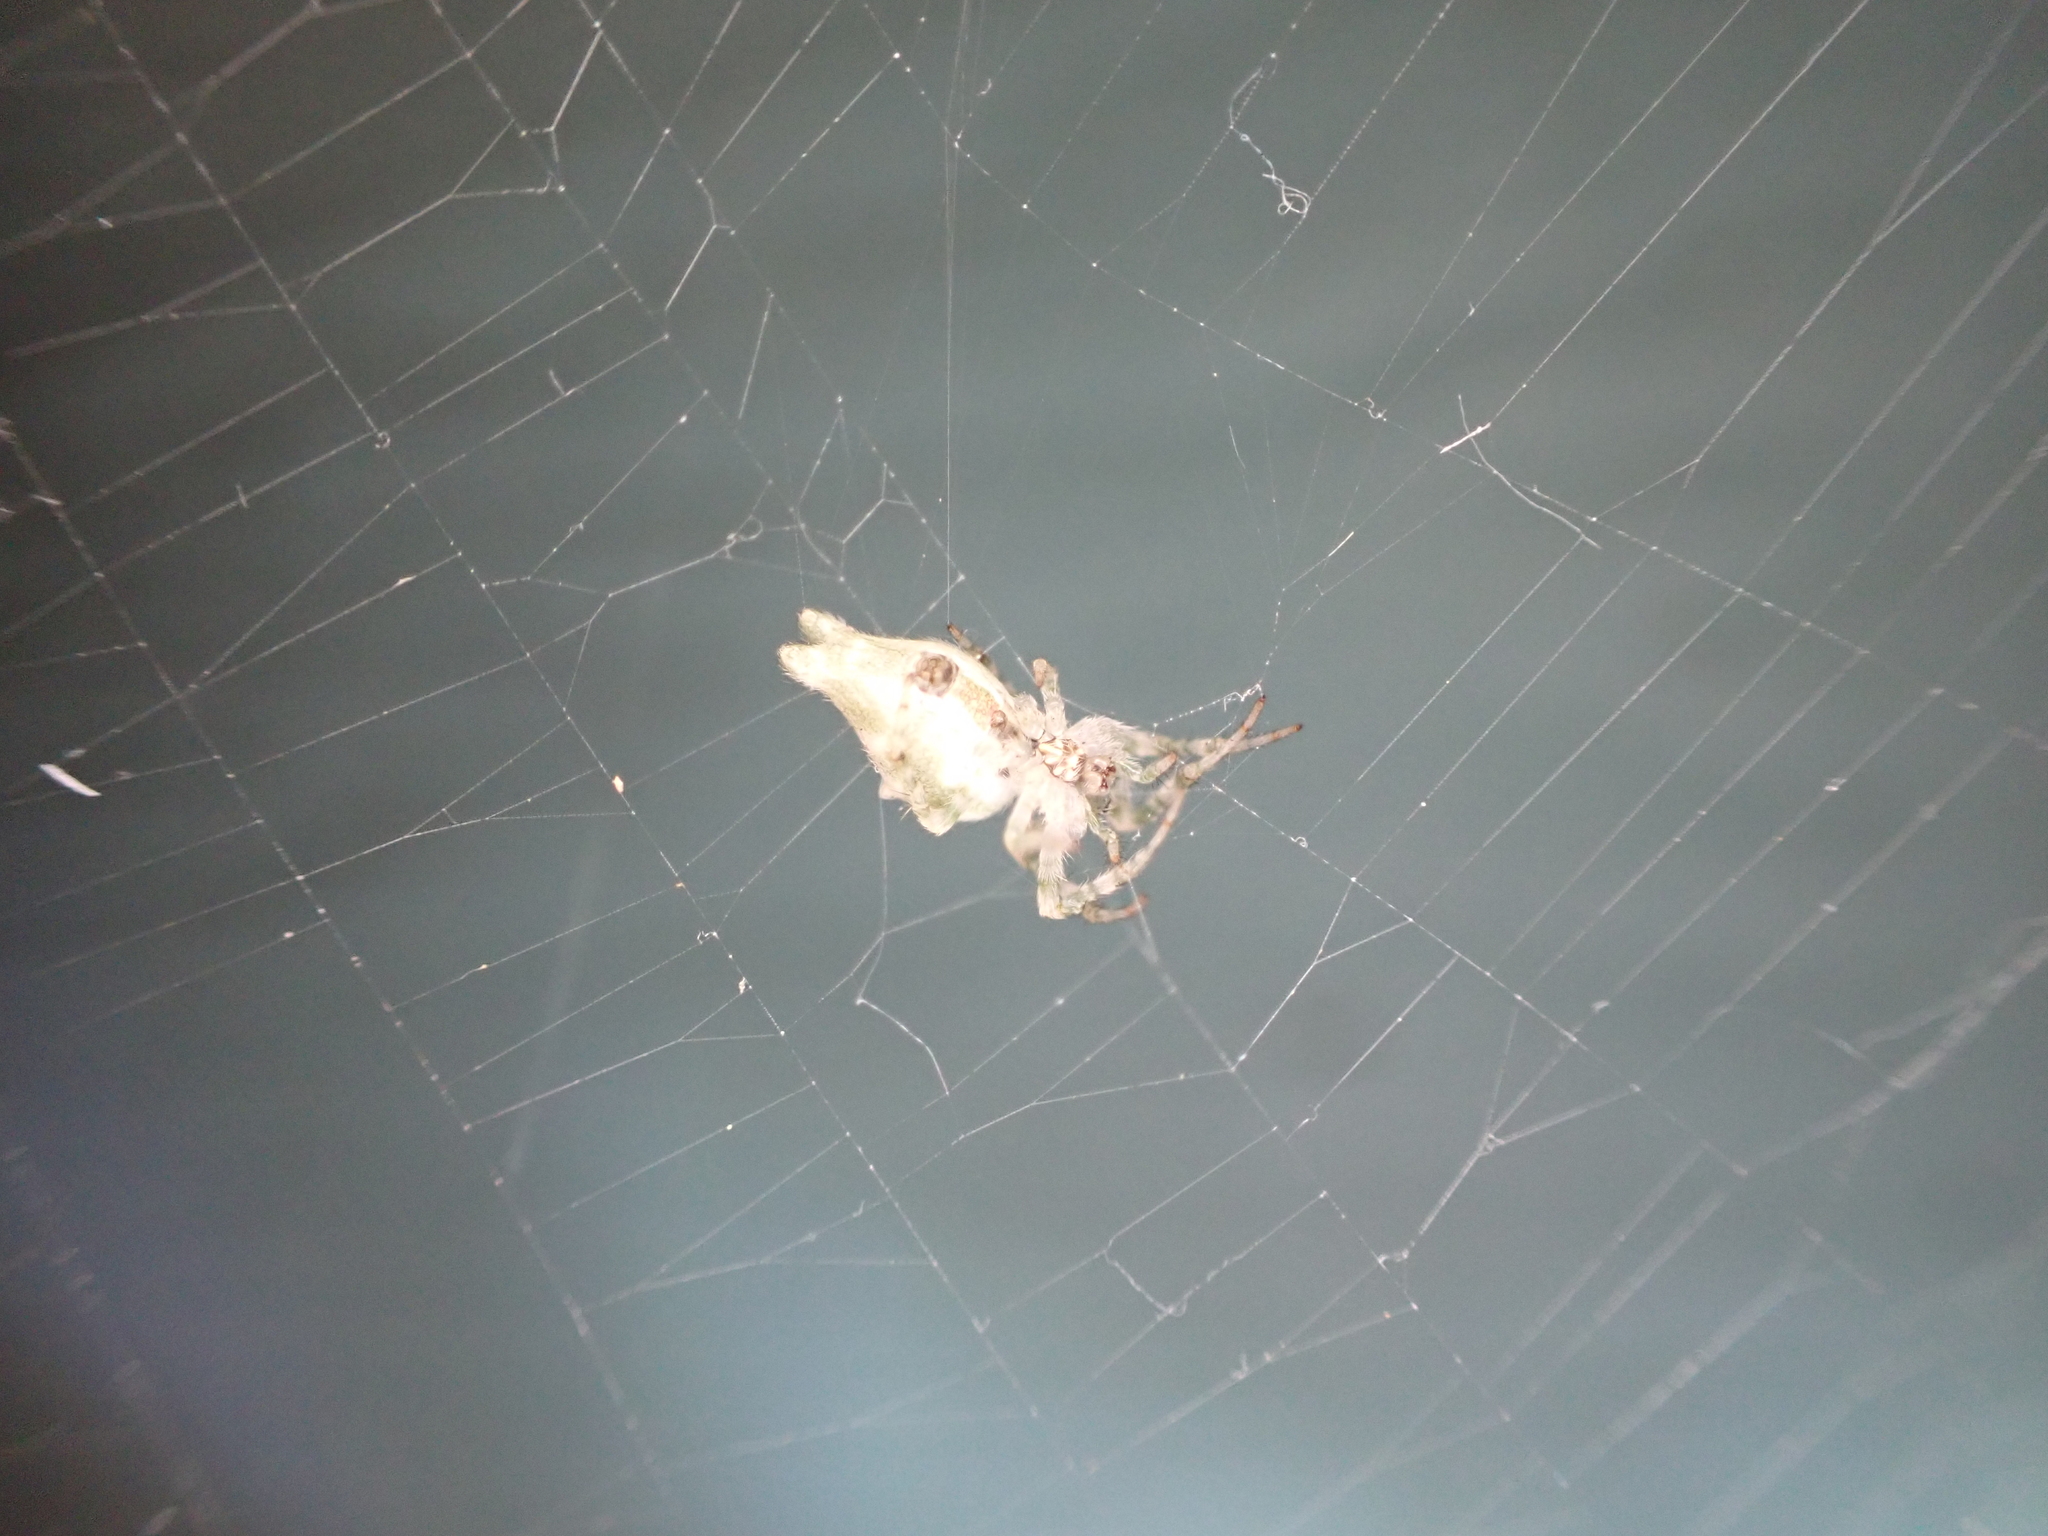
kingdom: Animalia
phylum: Arthropoda
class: Arachnida
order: Araneae
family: Araneidae
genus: Allocyclosa
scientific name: Allocyclosa bifurca
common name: Orb weavers
